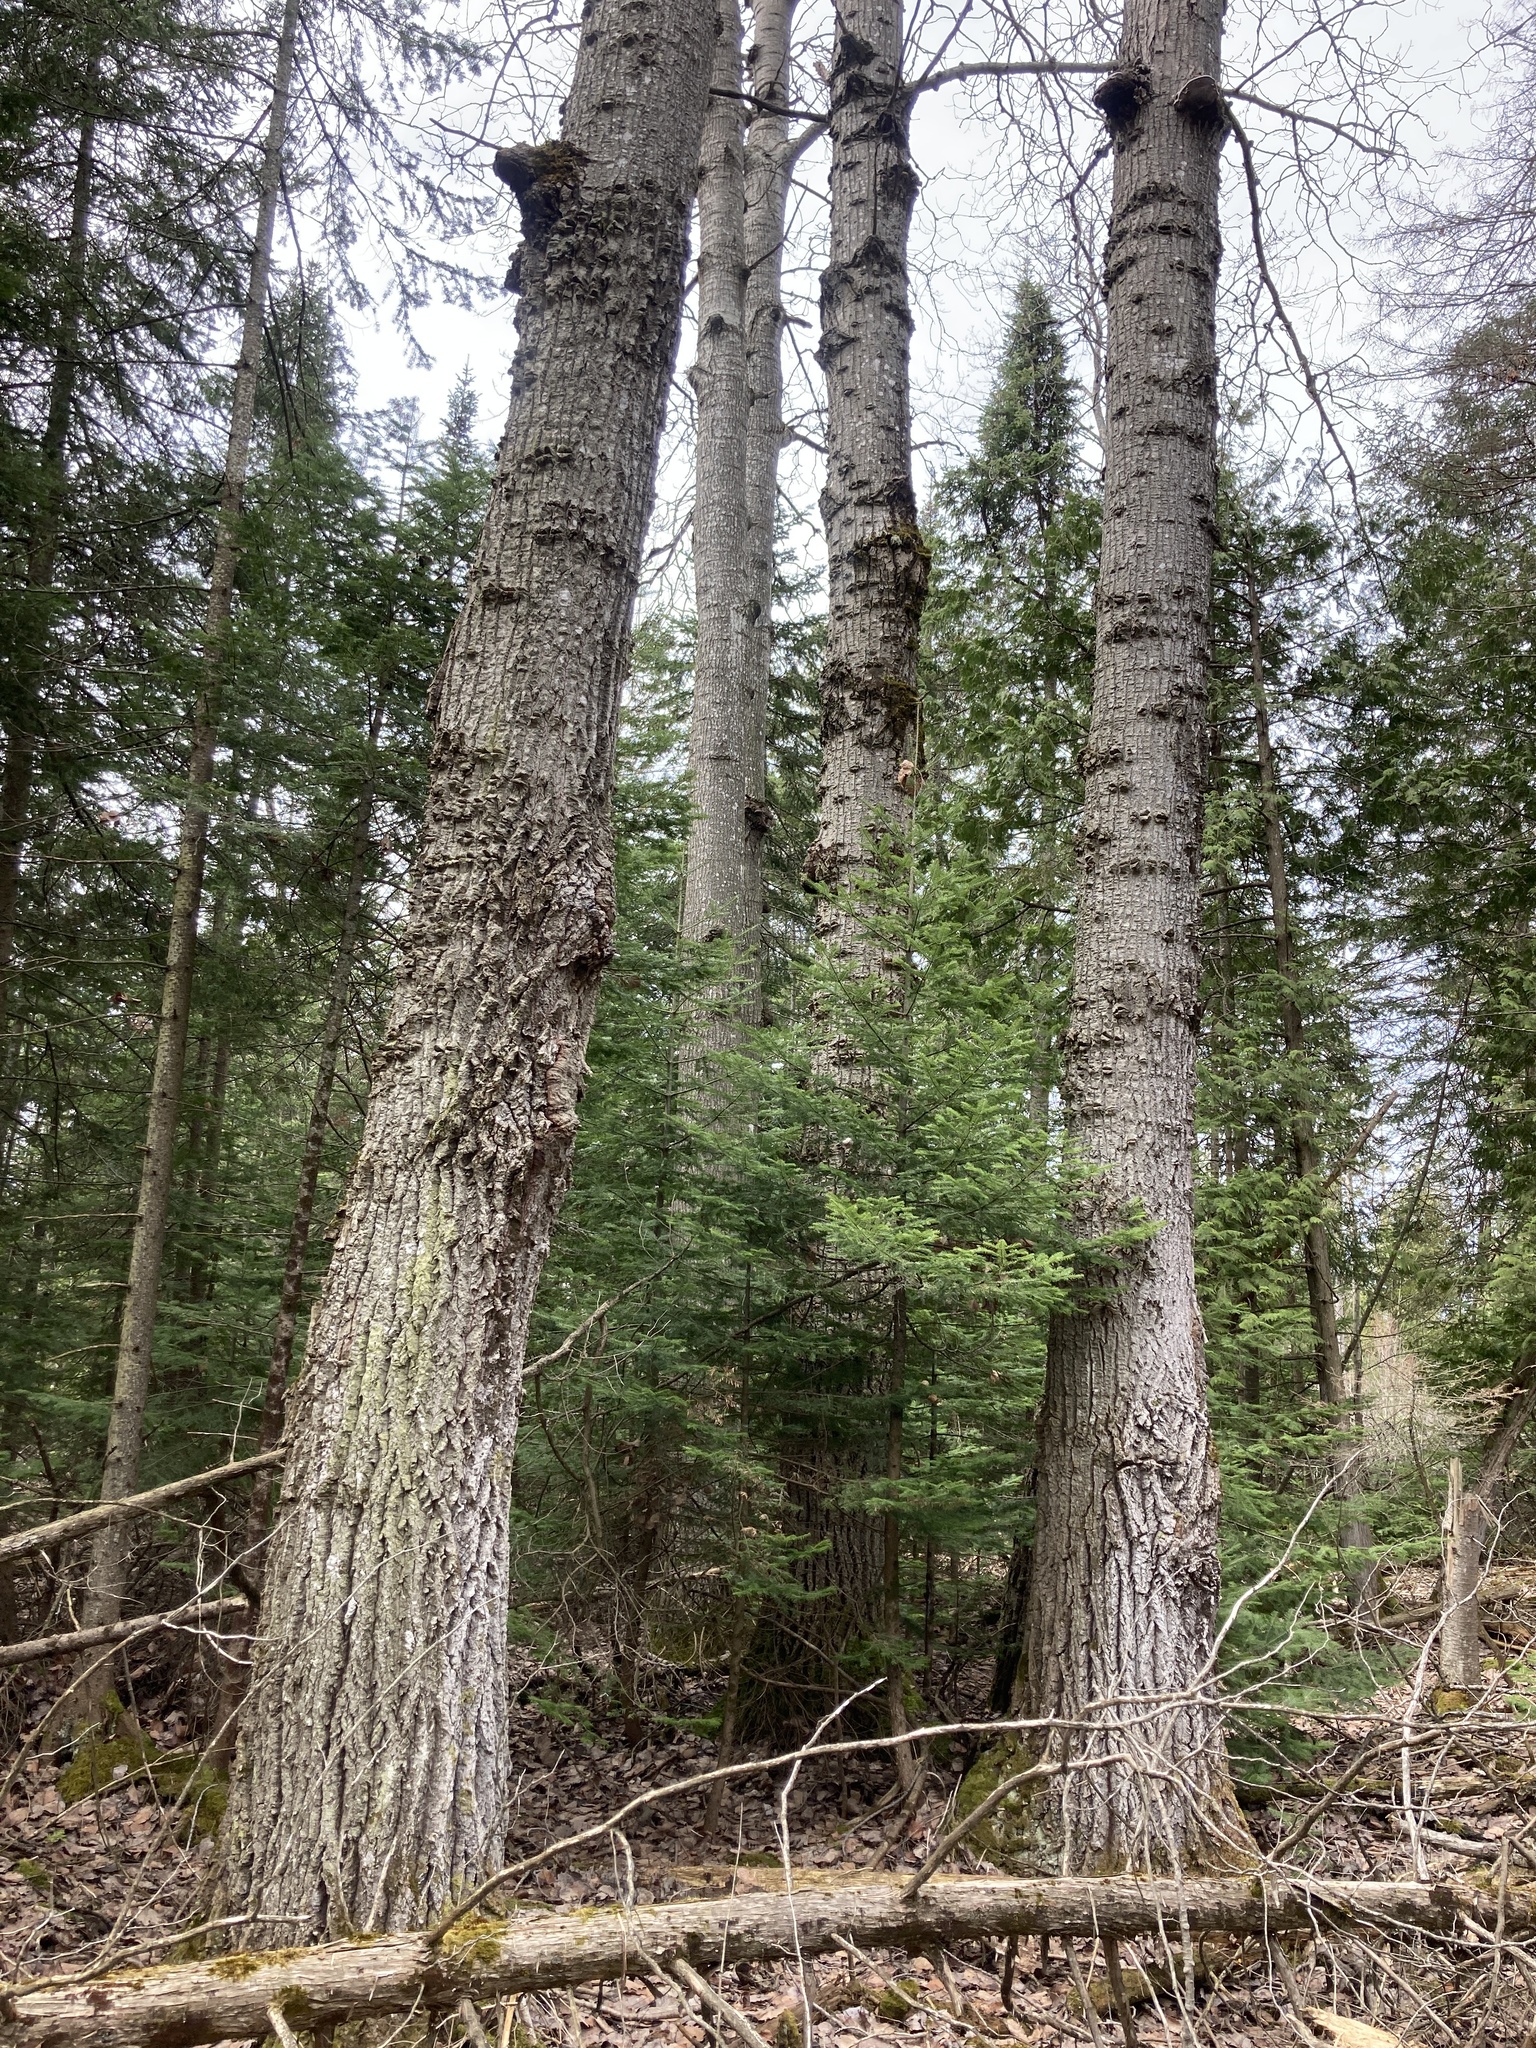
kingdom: Plantae
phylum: Tracheophyta
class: Magnoliopsida
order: Malpighiales
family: Salicaceae
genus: Populus
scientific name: Populus grandidentata
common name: Bigtooth aspen
